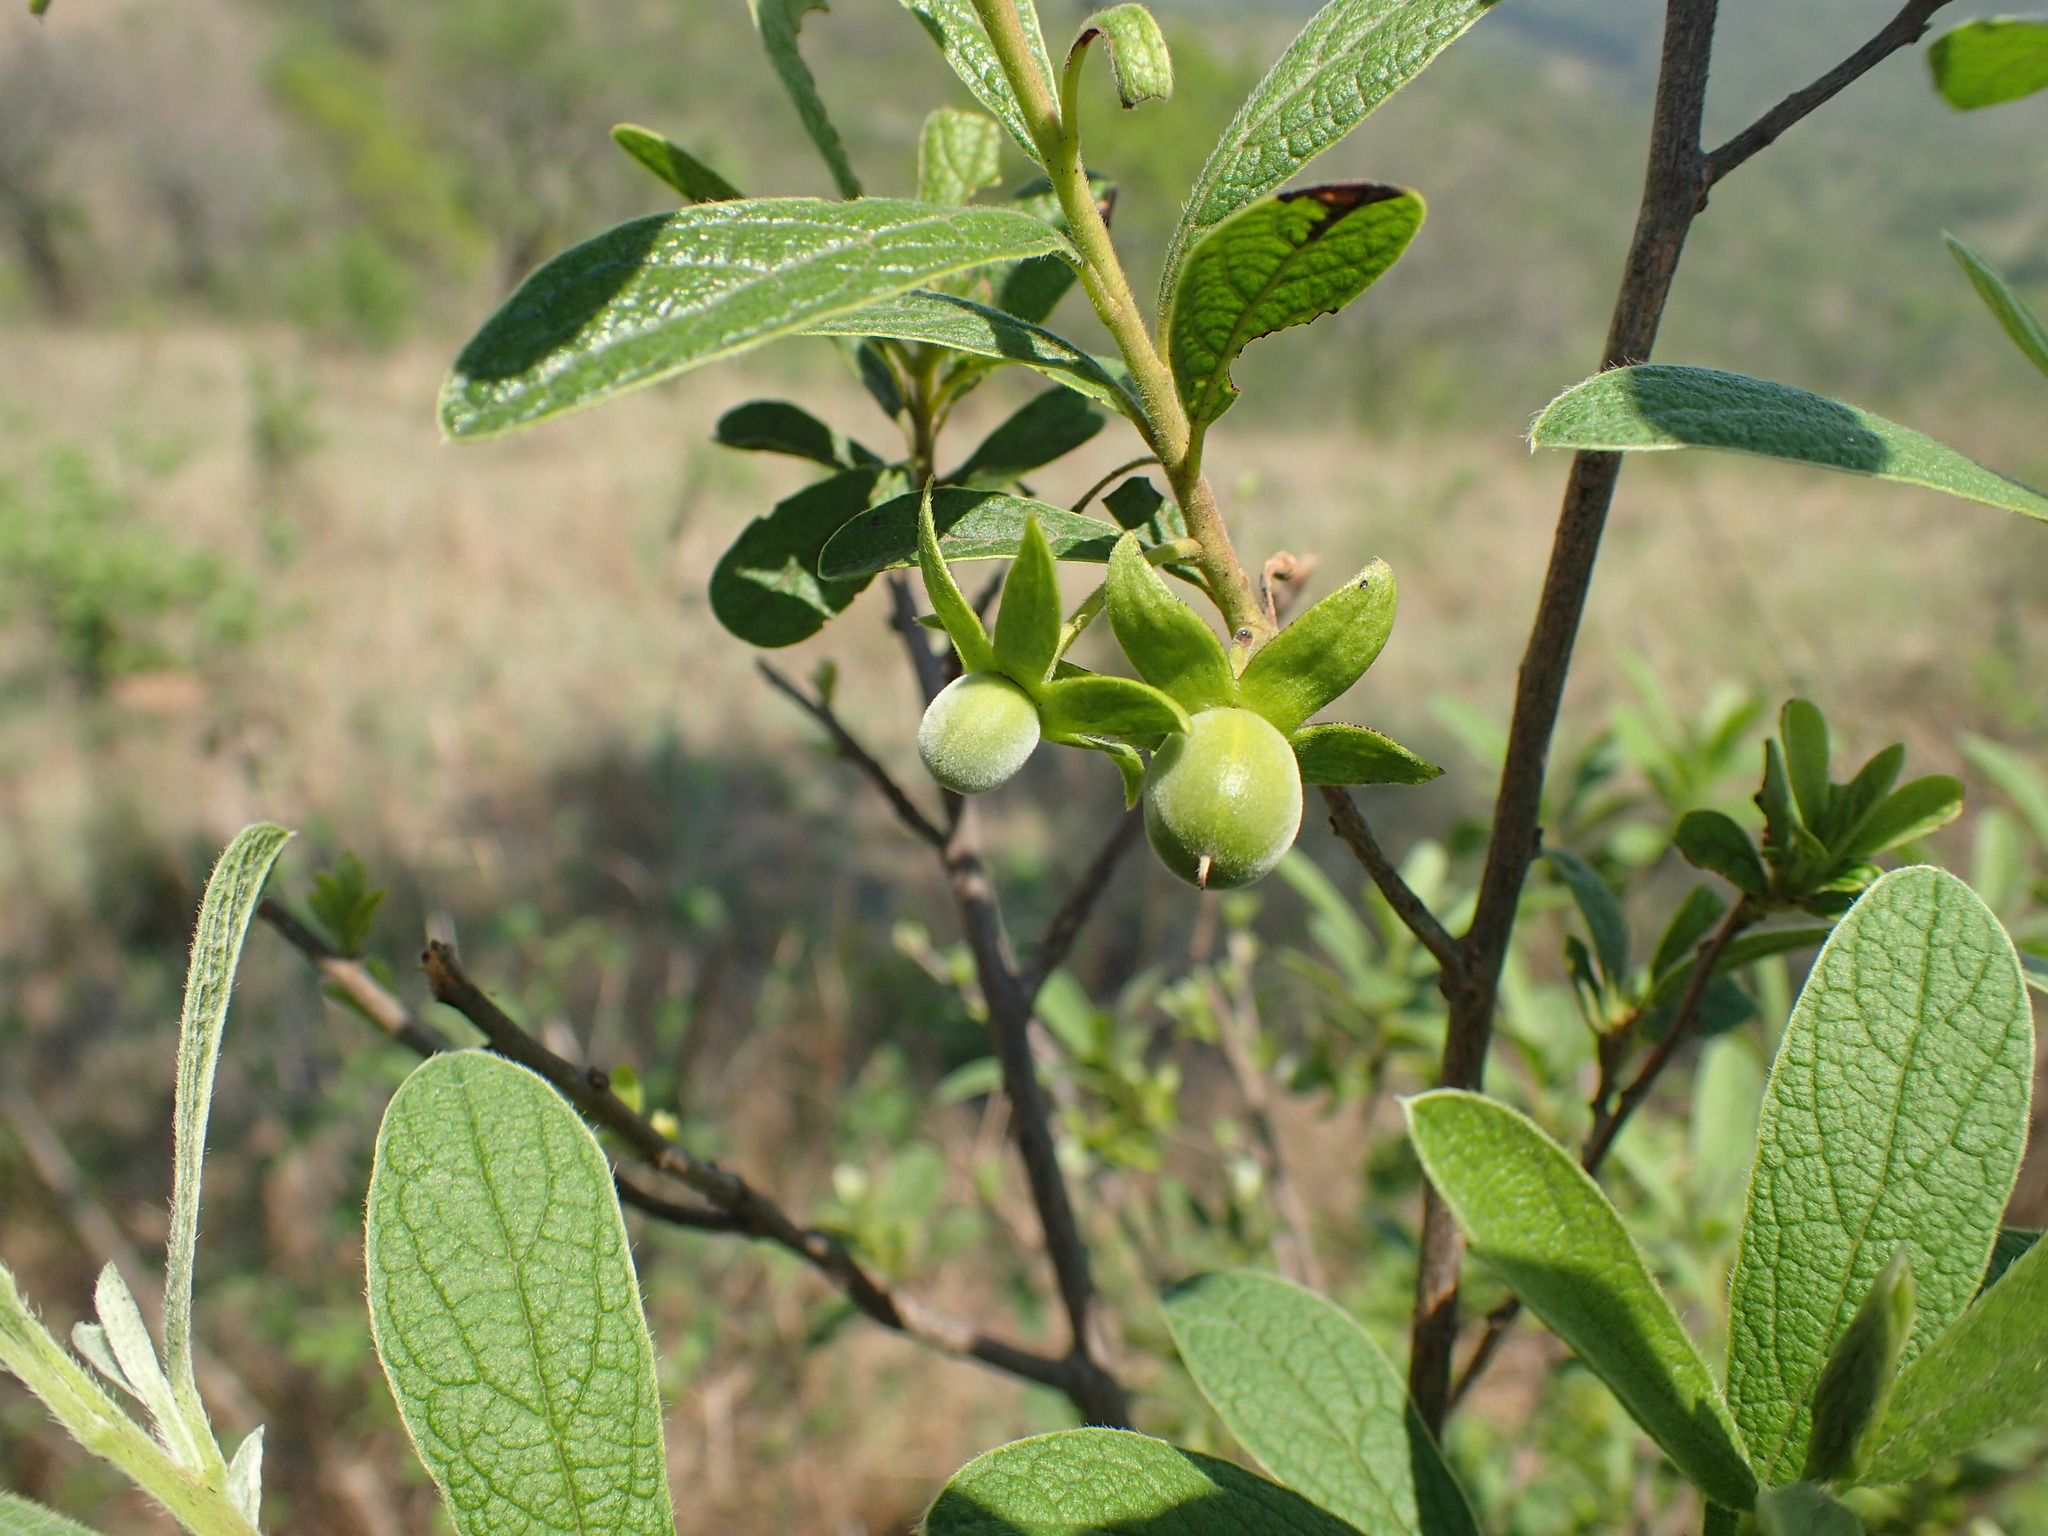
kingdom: Plantae
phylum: Tracheophyta
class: Magnoliopsida
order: Ericales
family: Ebenaceae
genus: Diospyros
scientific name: Diospyros lycioides
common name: Red star apple
